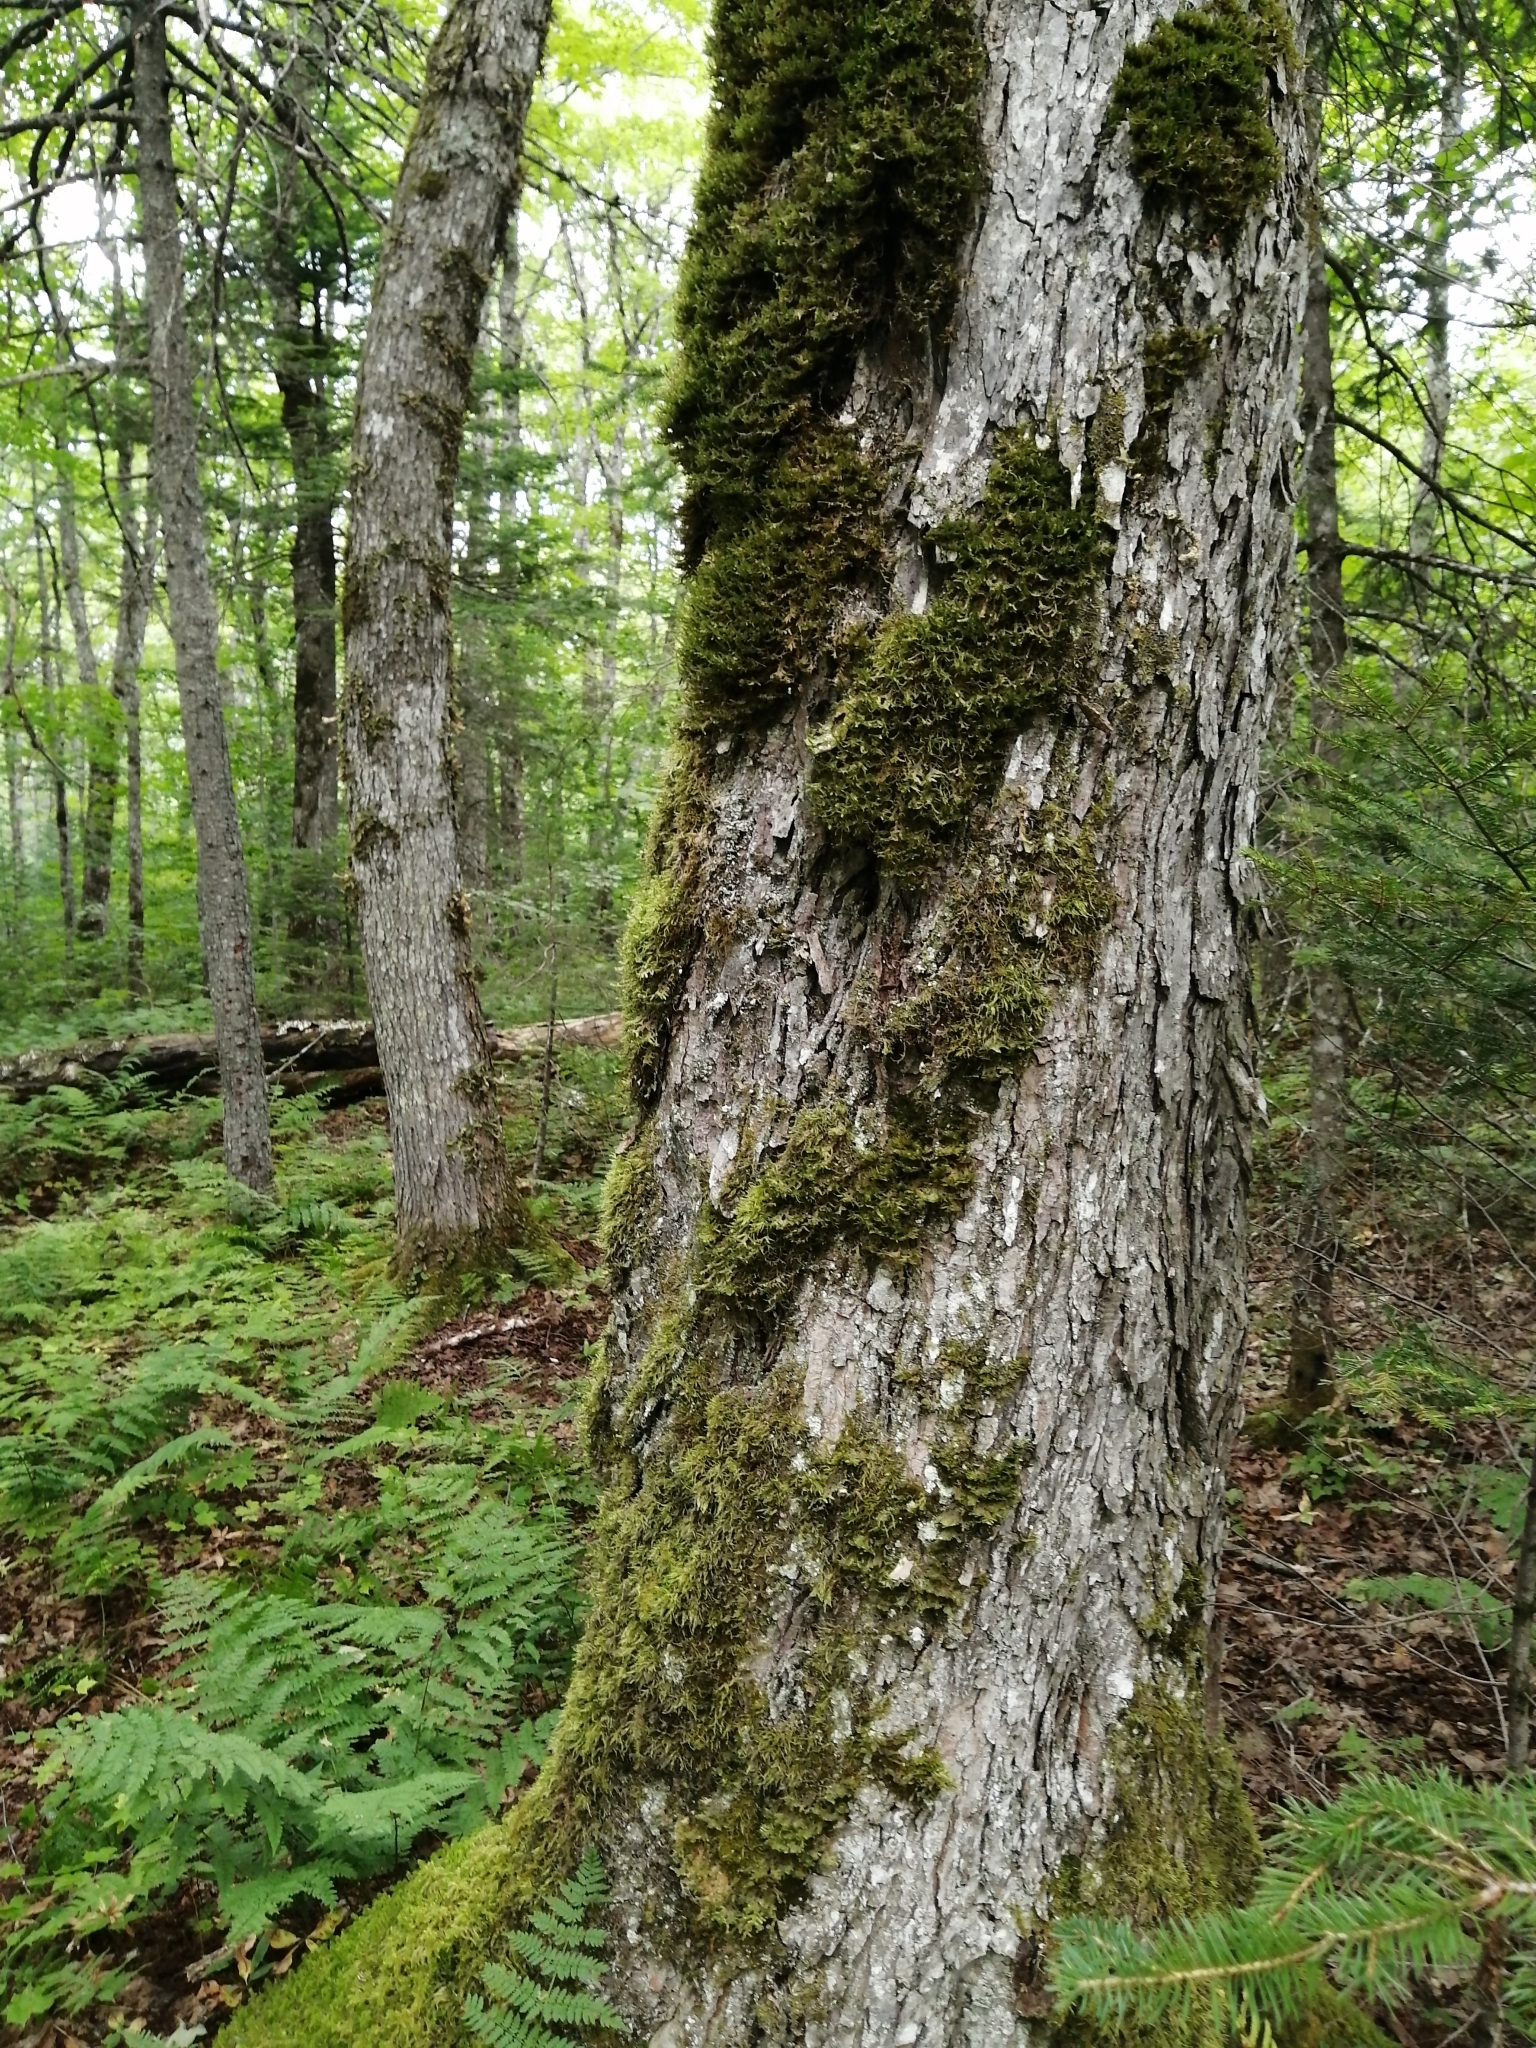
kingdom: Plantae
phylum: Tracheophyta
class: Magnoliopsida
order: Sapindales
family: Sapindaceae
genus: Acer
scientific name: Acer saccharum
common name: Sugar maple
